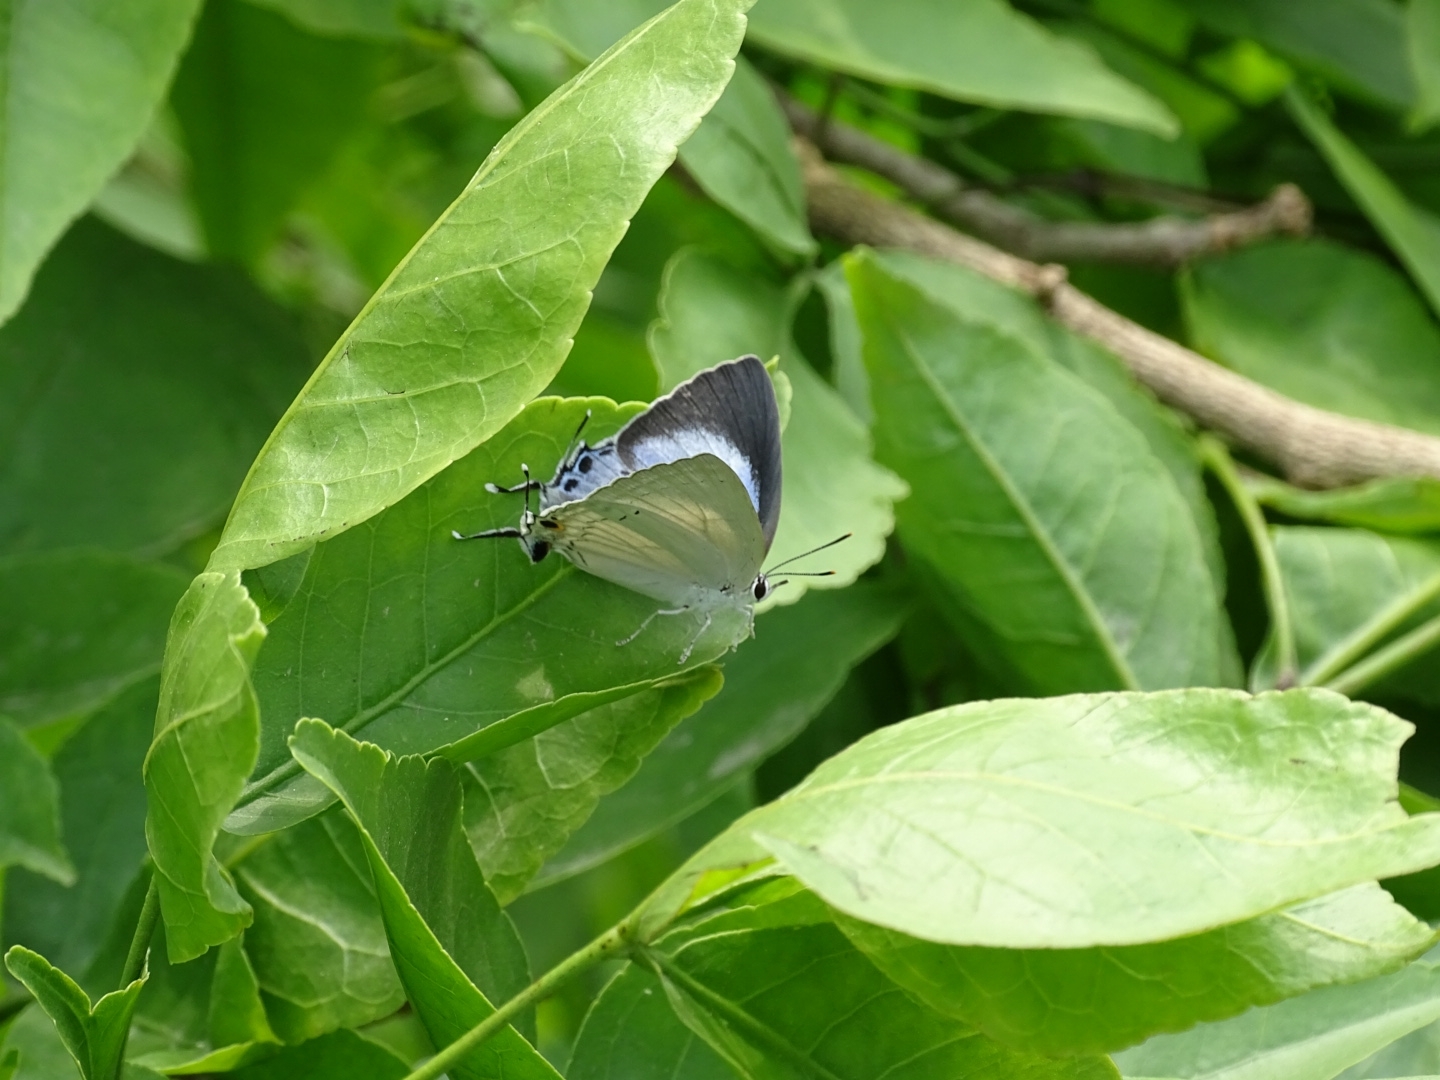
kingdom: Animalia
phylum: Arthropoda
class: Insecta
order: Lepidoptera
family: Lycaenidae
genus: Tajuria
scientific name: Tajuria cippus
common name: Peacock royal
